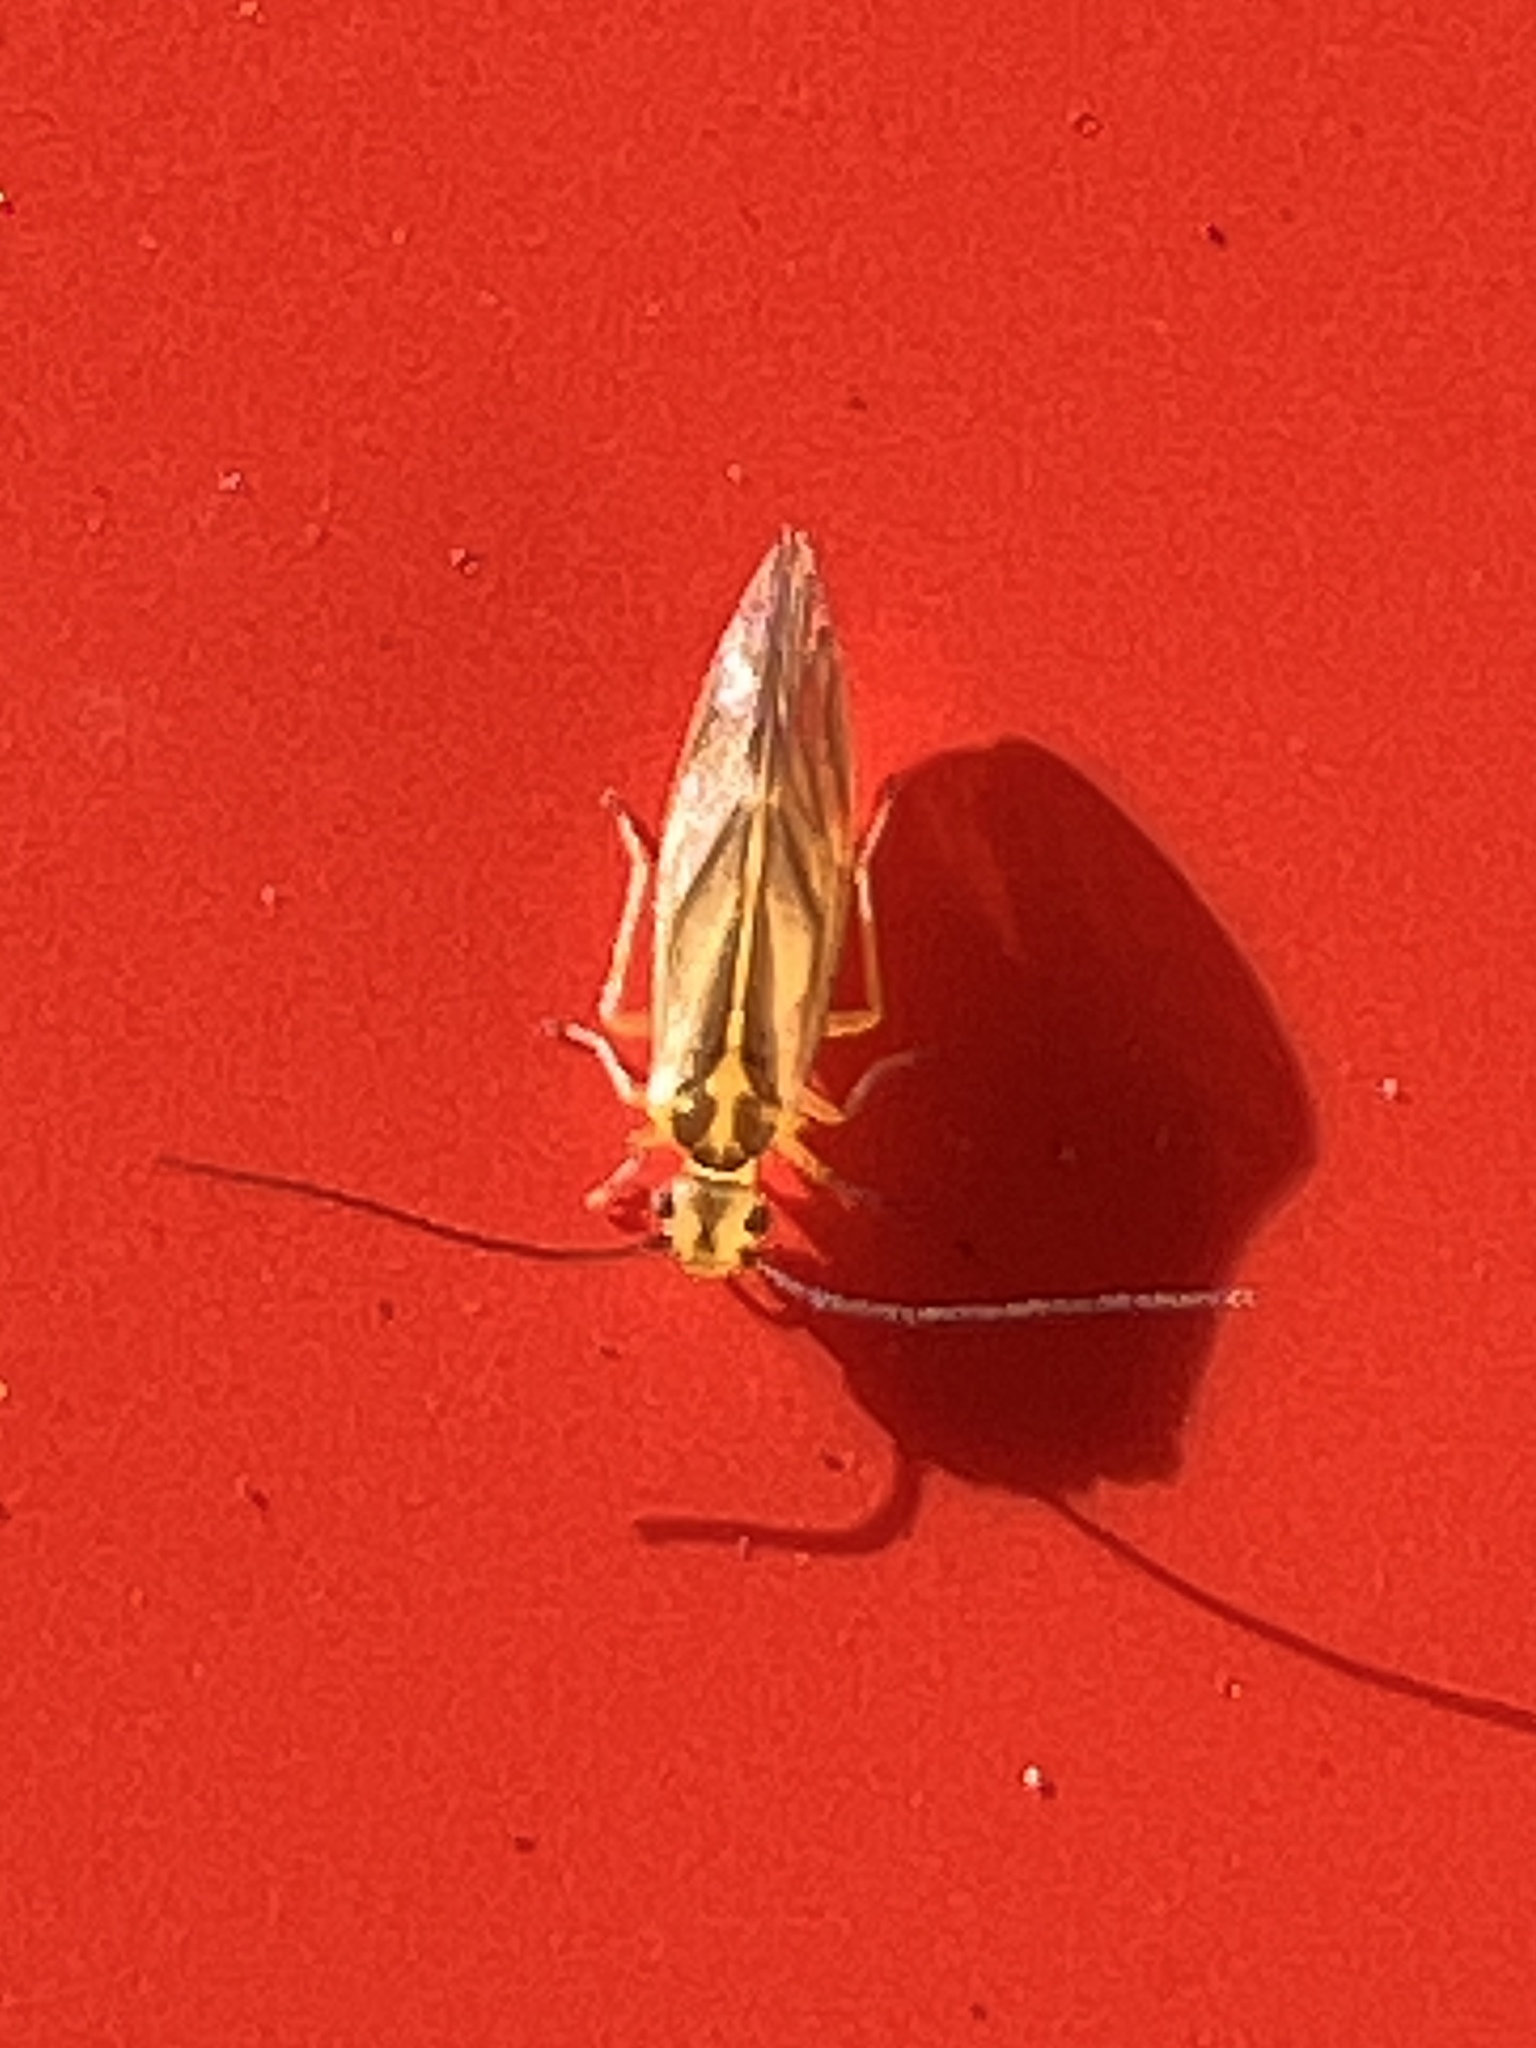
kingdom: Animalia
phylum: Arthropoda
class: Insecta
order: Psocodea
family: Caeciliusidae
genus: Valenzuela
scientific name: Valenzuela flavidus
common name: Yellow barklouse
